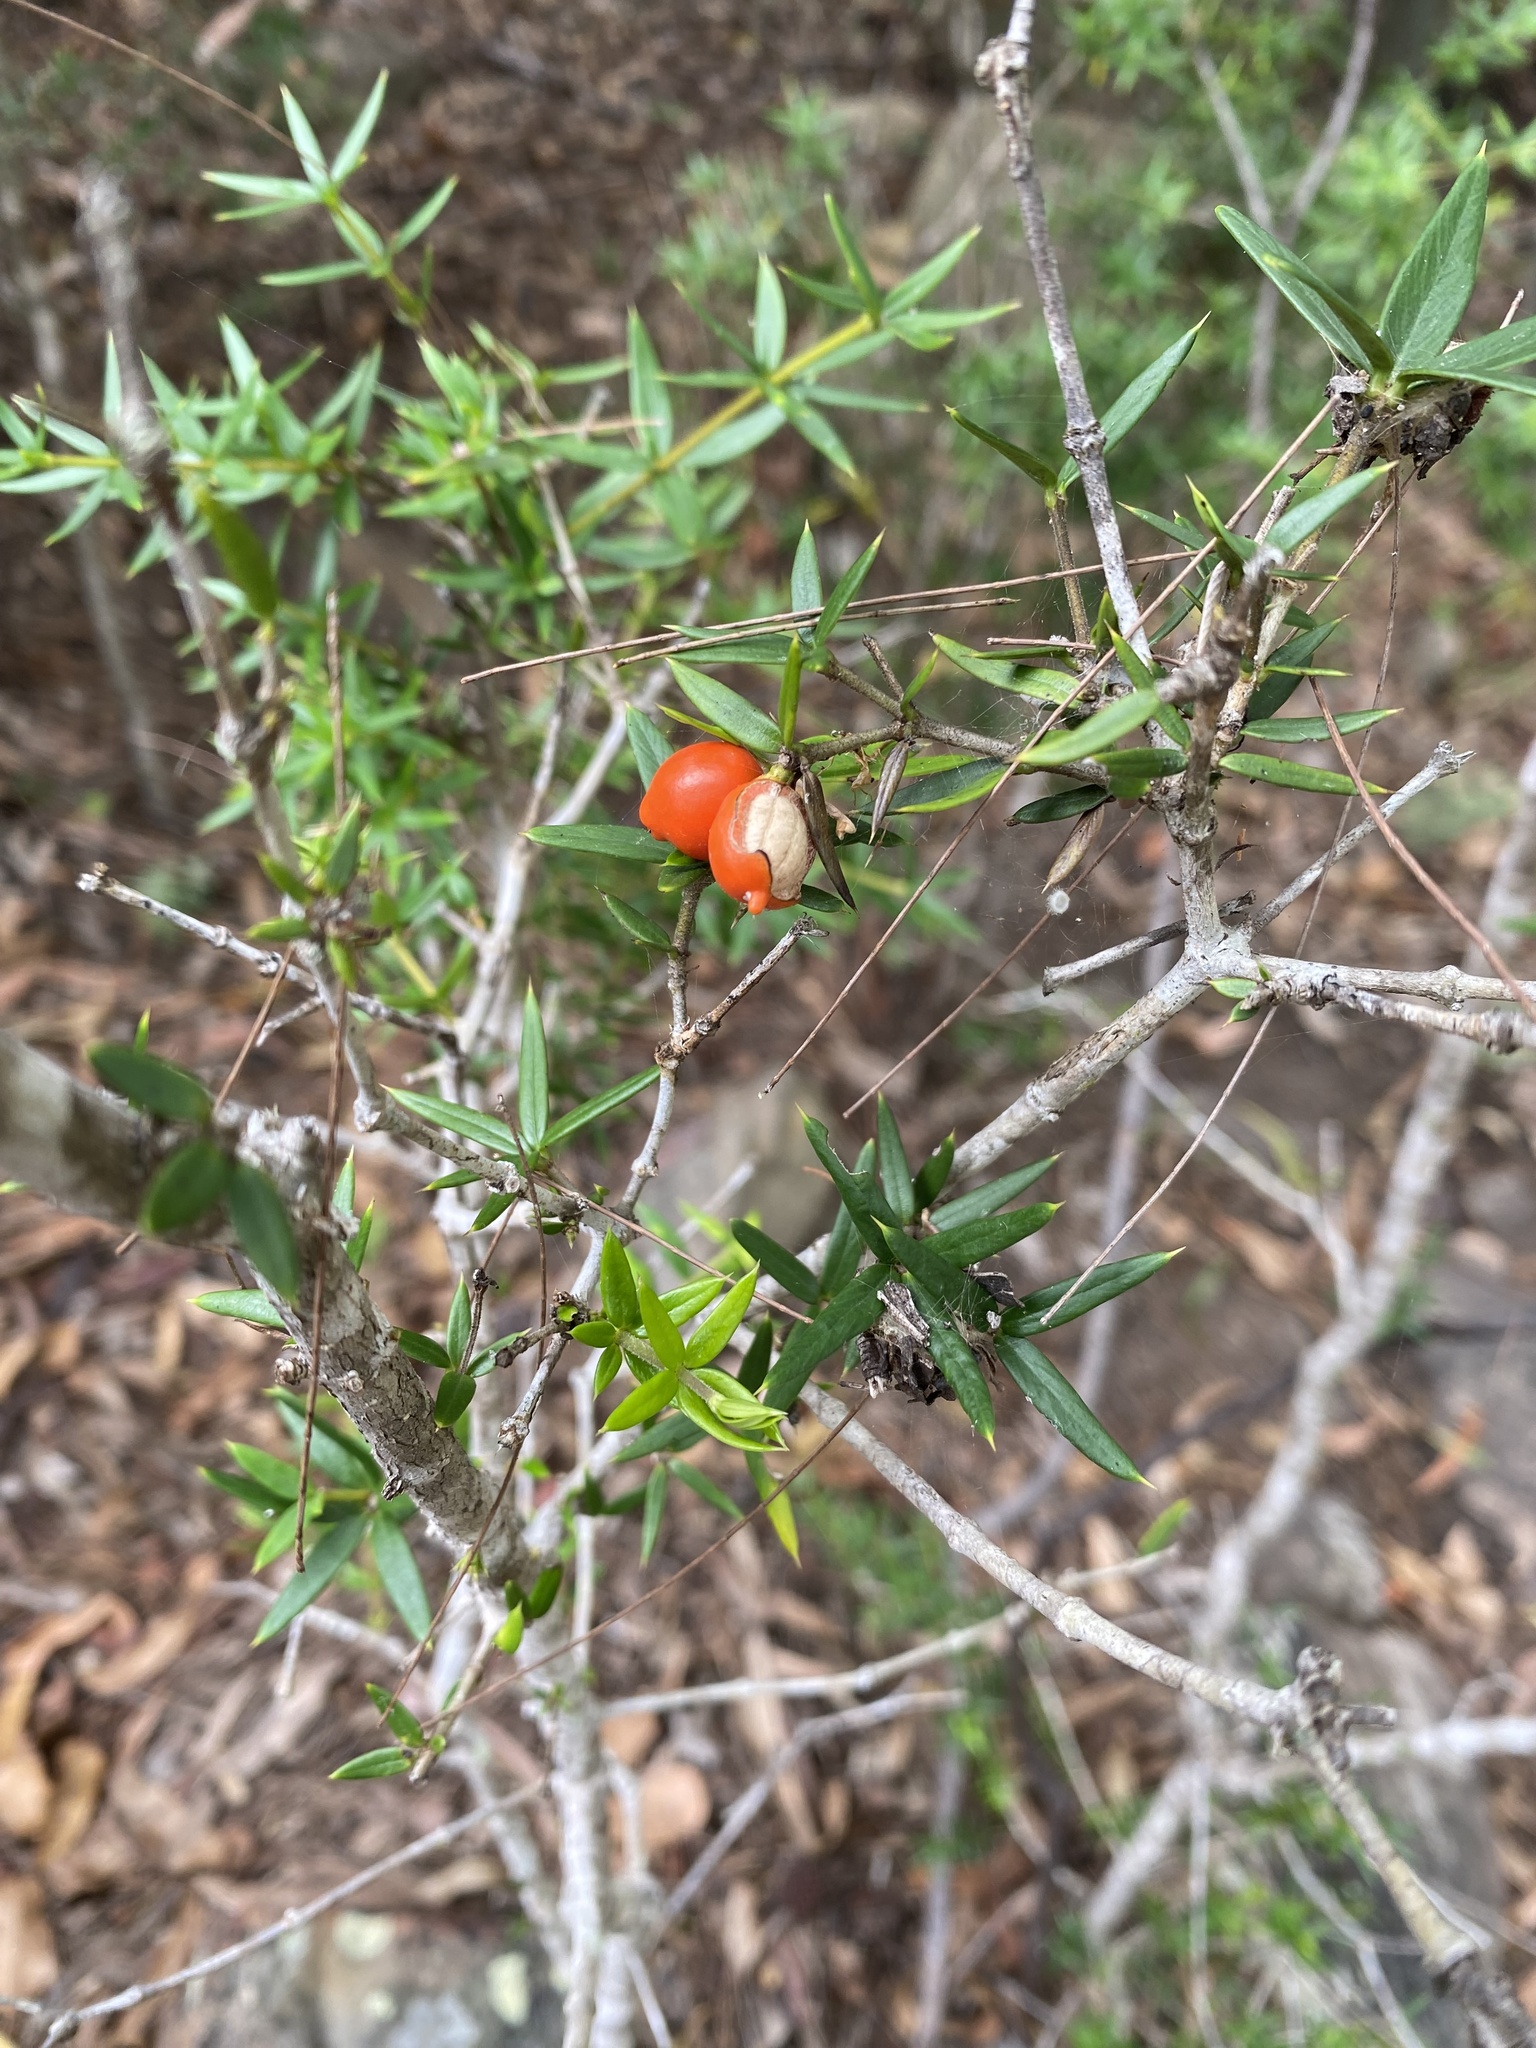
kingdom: Plantae
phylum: Tracheophyta
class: Magnoliopsida
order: Gentianales
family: Apocynaceae
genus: Alyxia
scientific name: Alyxia ruscifolia
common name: Chainfruit
